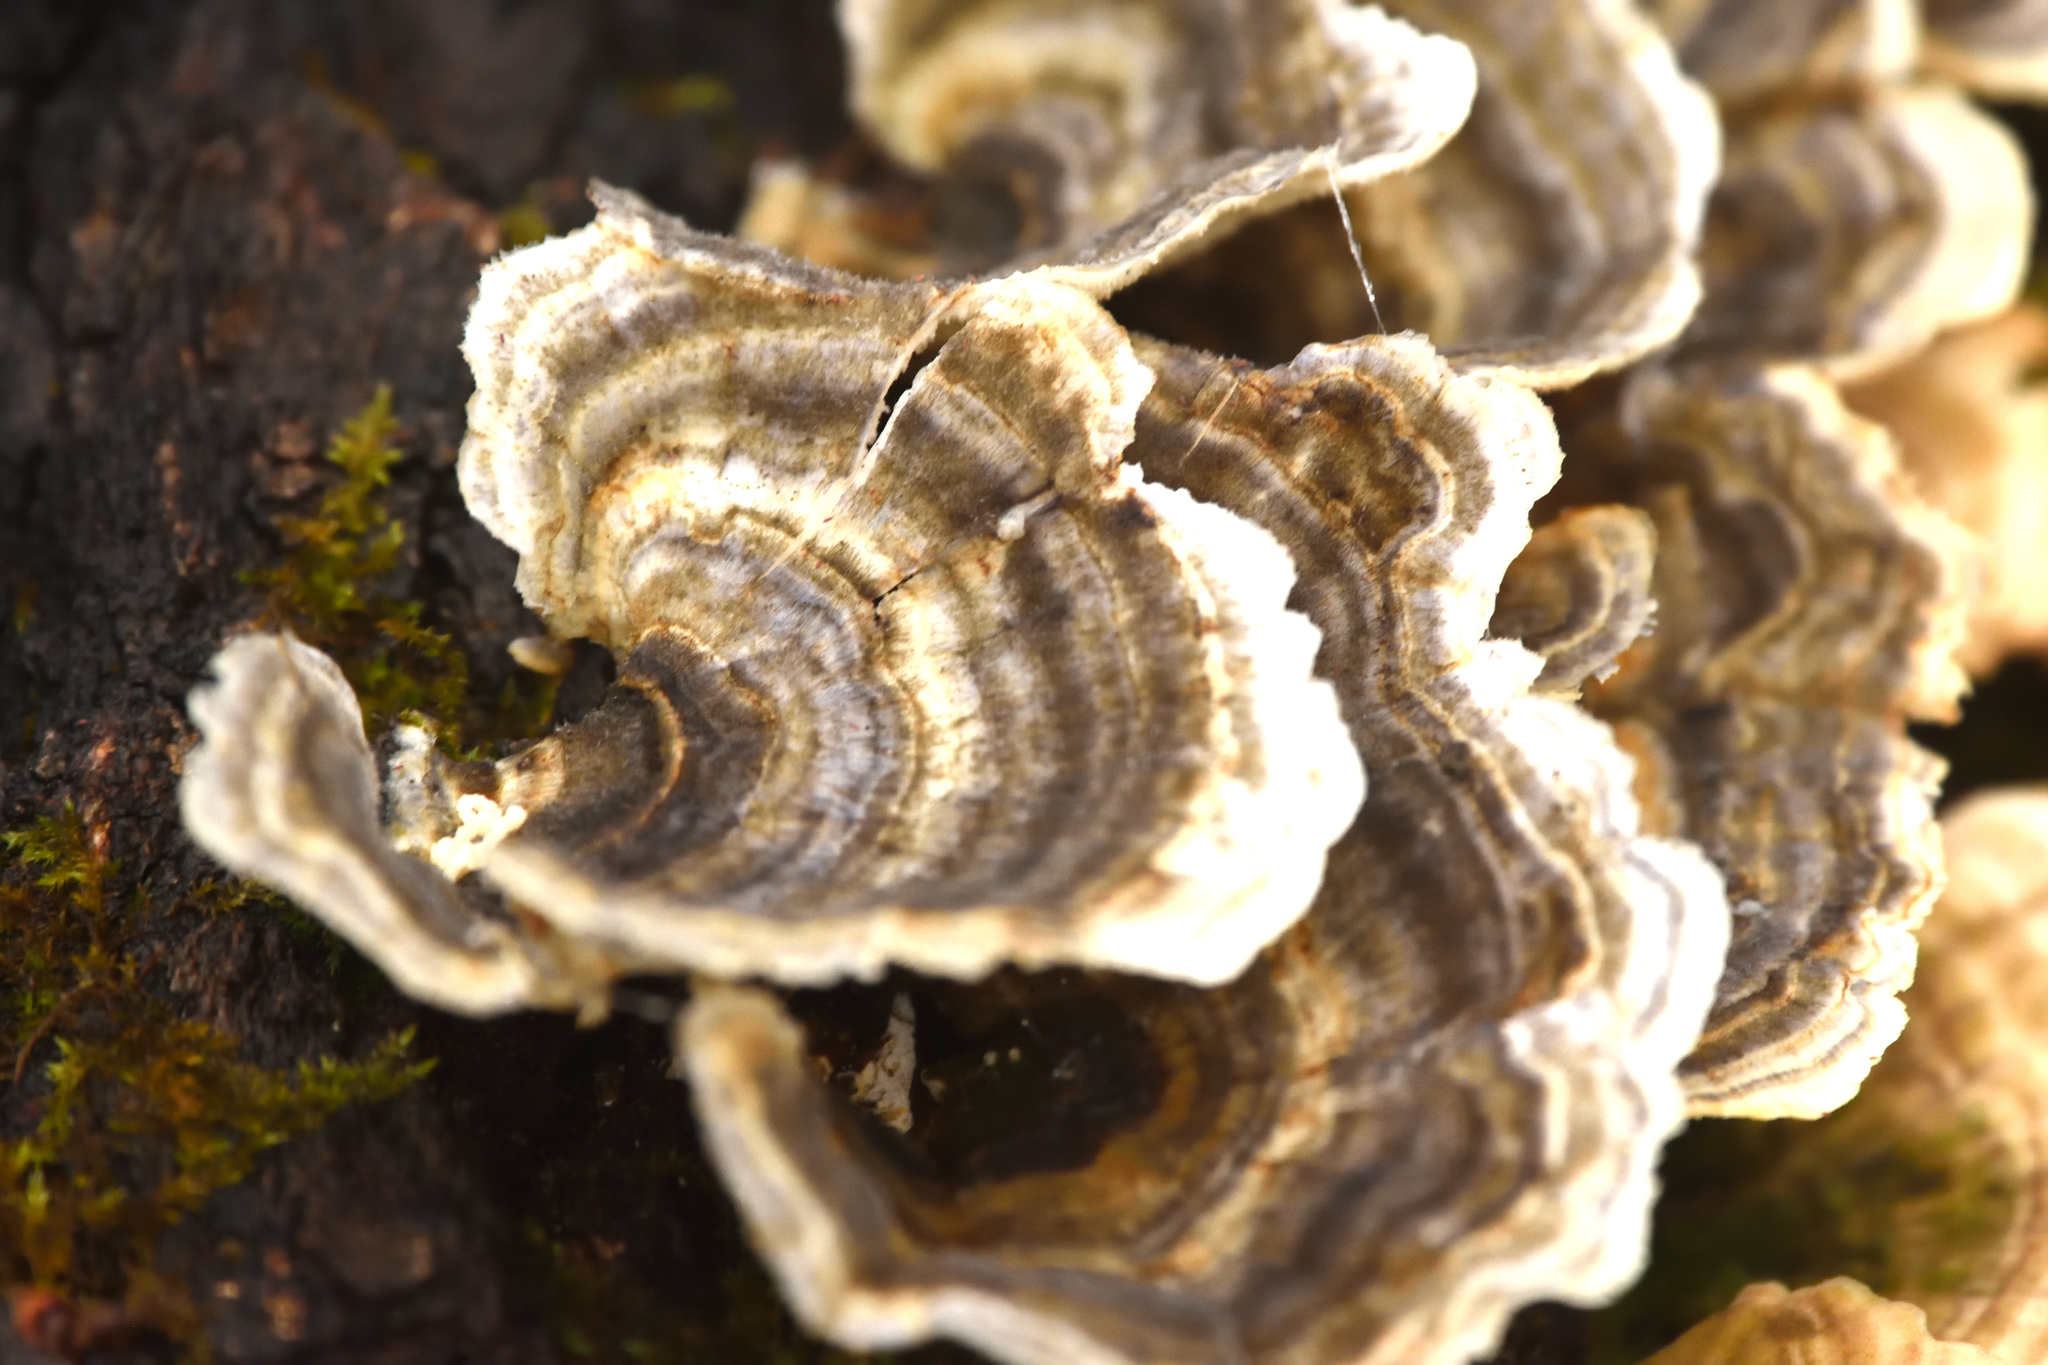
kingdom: Fungi
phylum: Basidiomycota
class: Agaricomycetes
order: Polyporales
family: Polyporaceae
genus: Trametes
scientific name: Trametes versicolor
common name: Turkeytail
